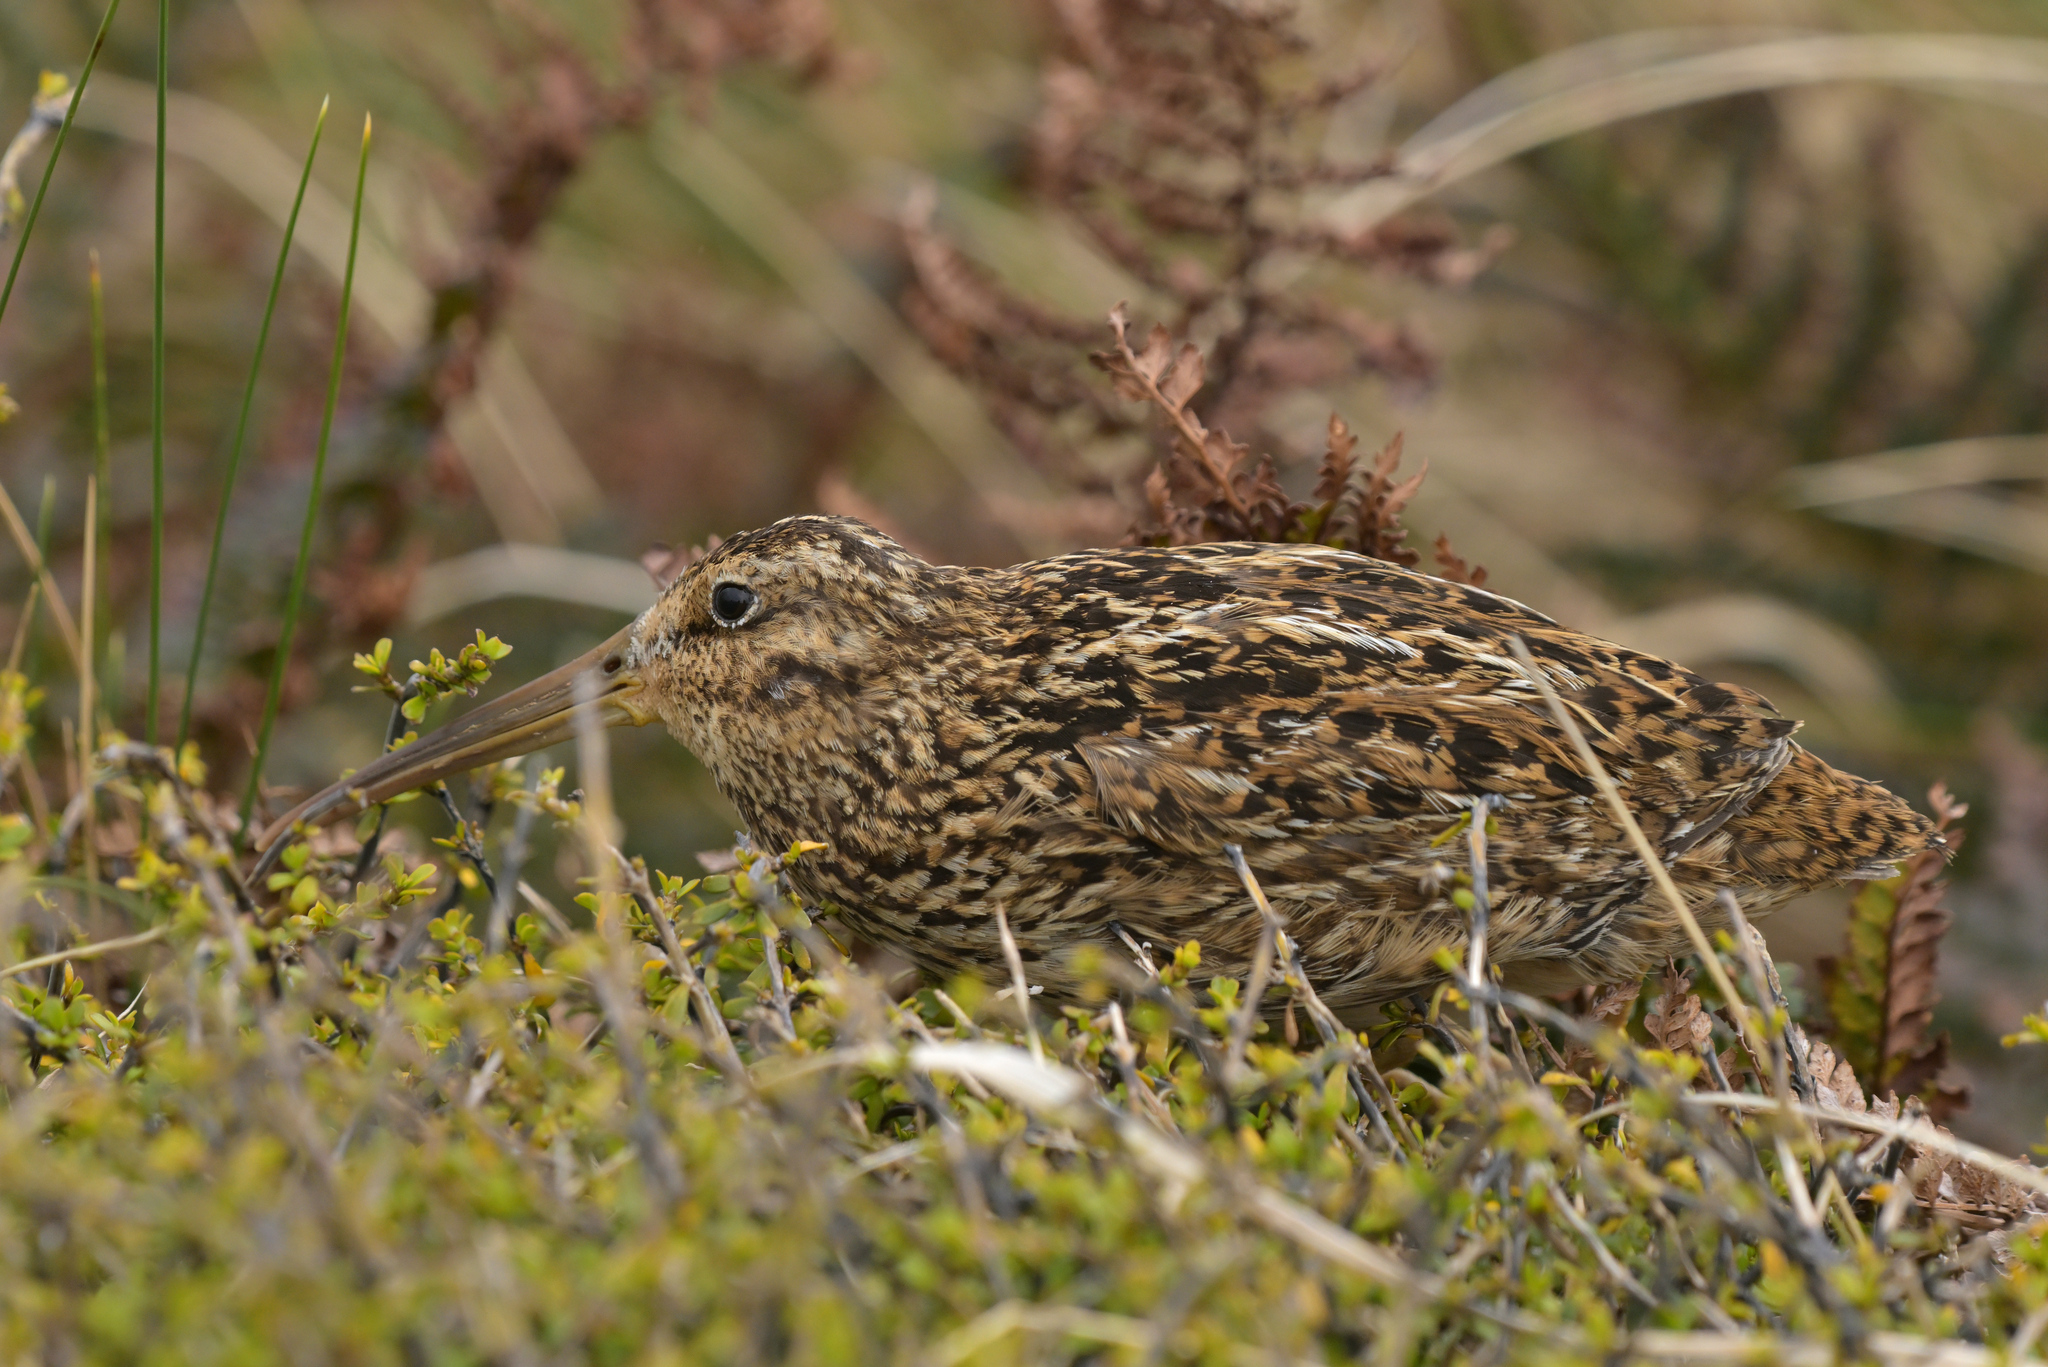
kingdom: Animalia
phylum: Chordata
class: Aves
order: Charadriiformes
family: Scolopacidae
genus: Coenocorypha
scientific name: Coenocorypha aucklandica
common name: Subantarctic snipe
